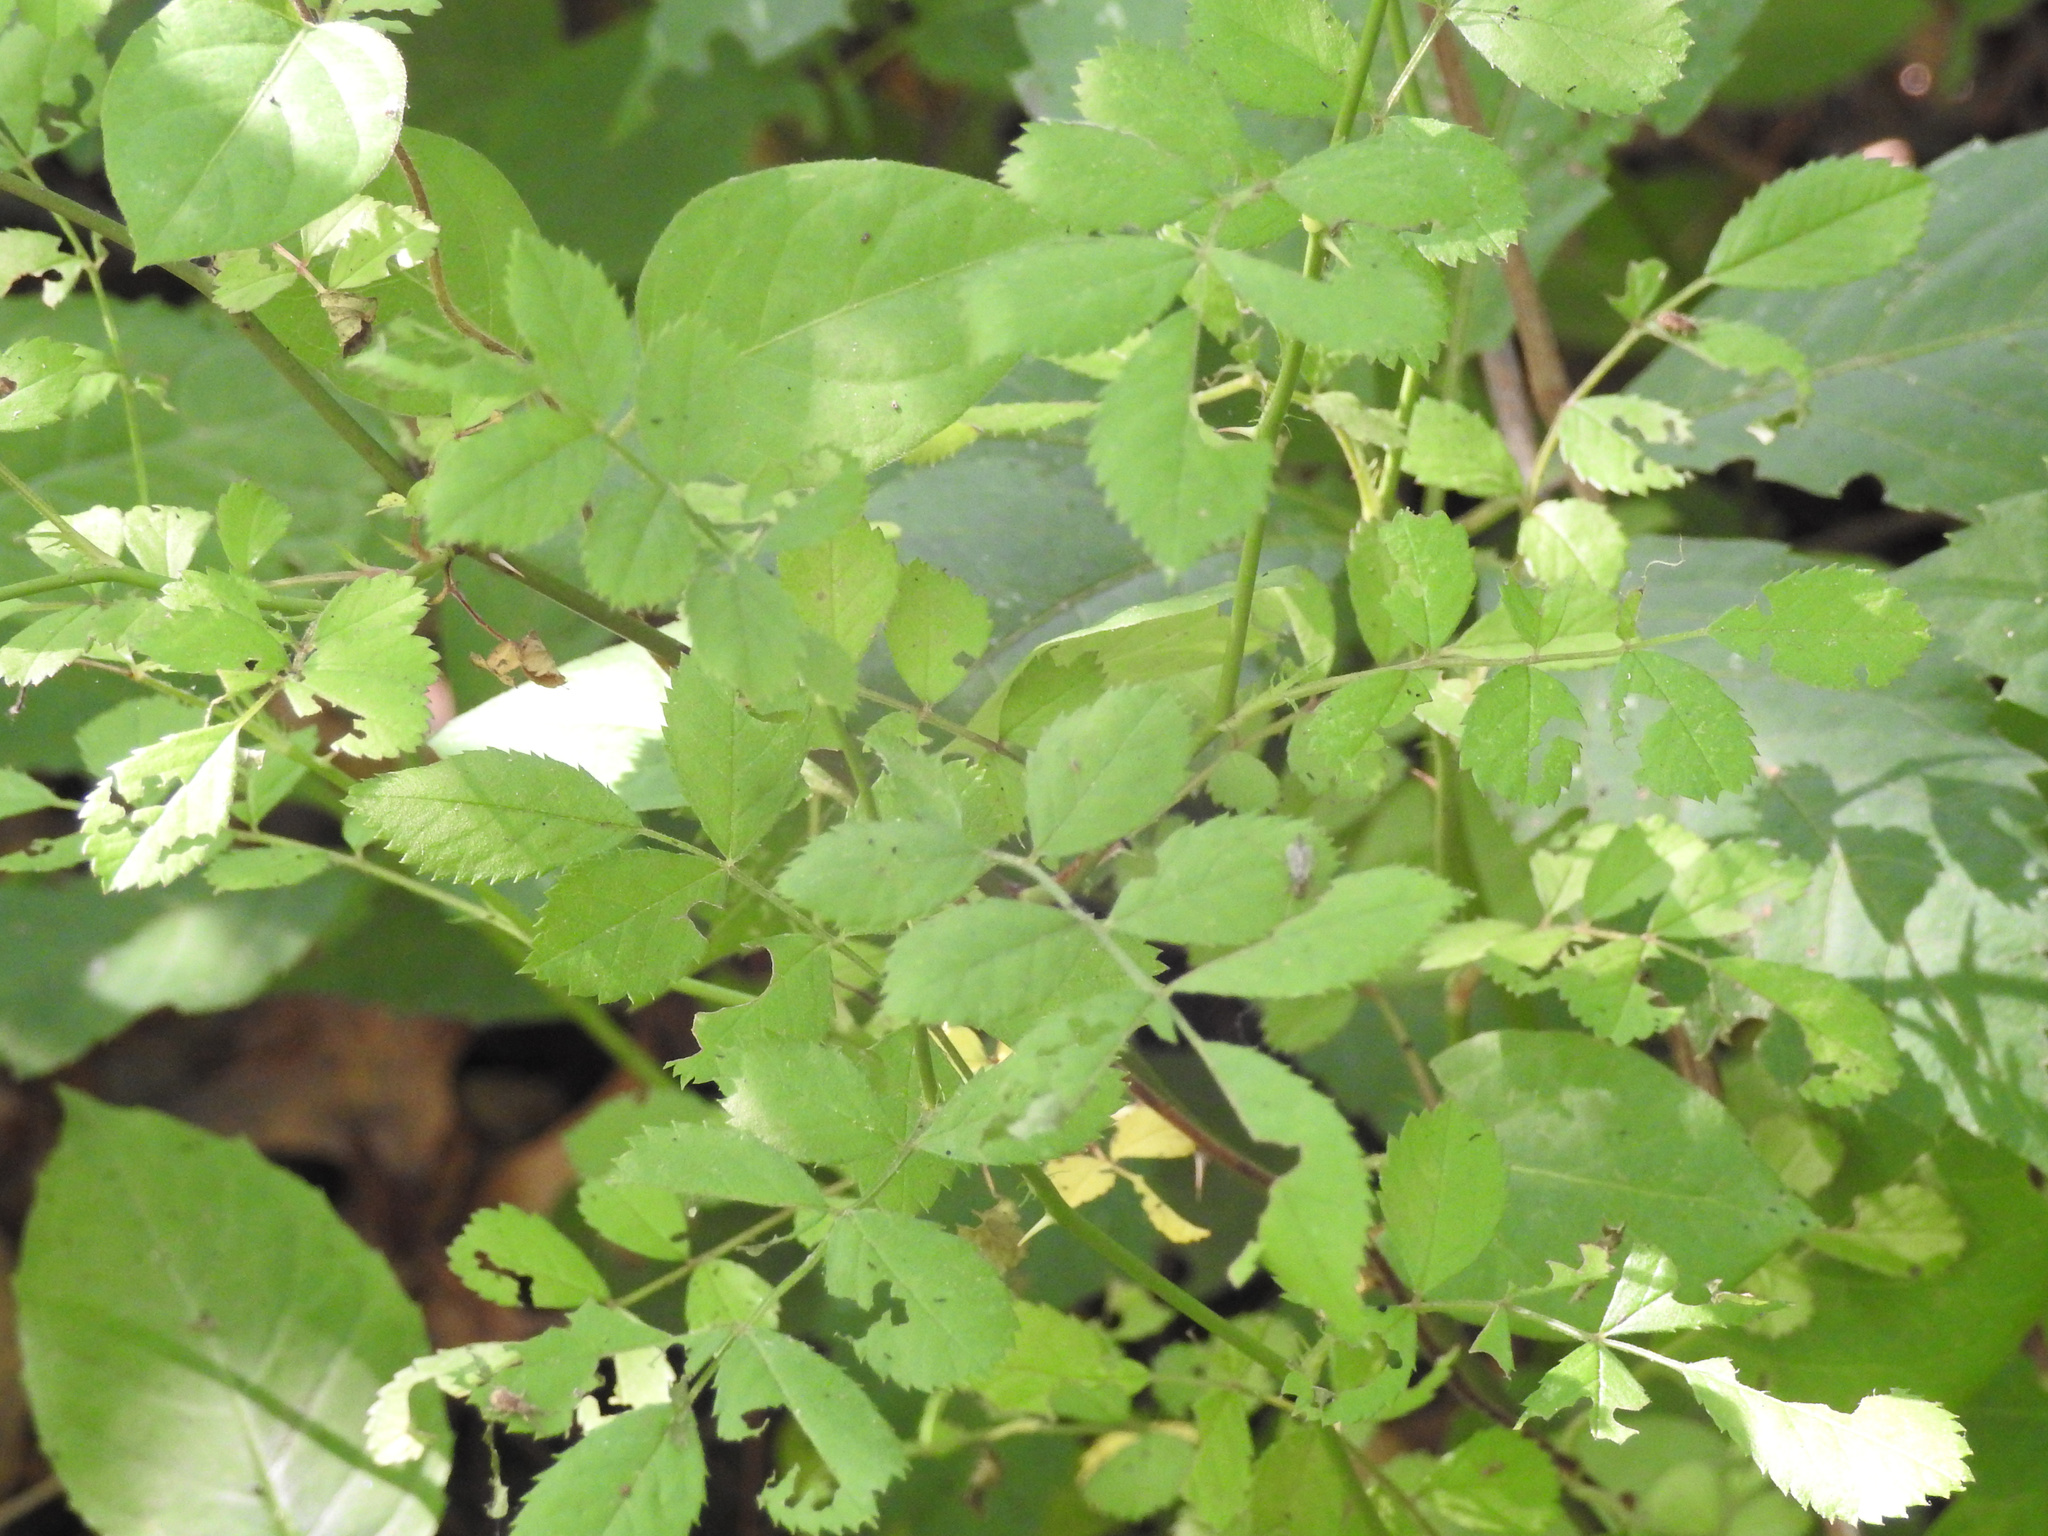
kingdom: Plantae
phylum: Tracheophyta
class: Magnoliopsida
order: Rosales
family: Rosaceae
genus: Rosa
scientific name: Rosa multiflora
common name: Multiflora rose
